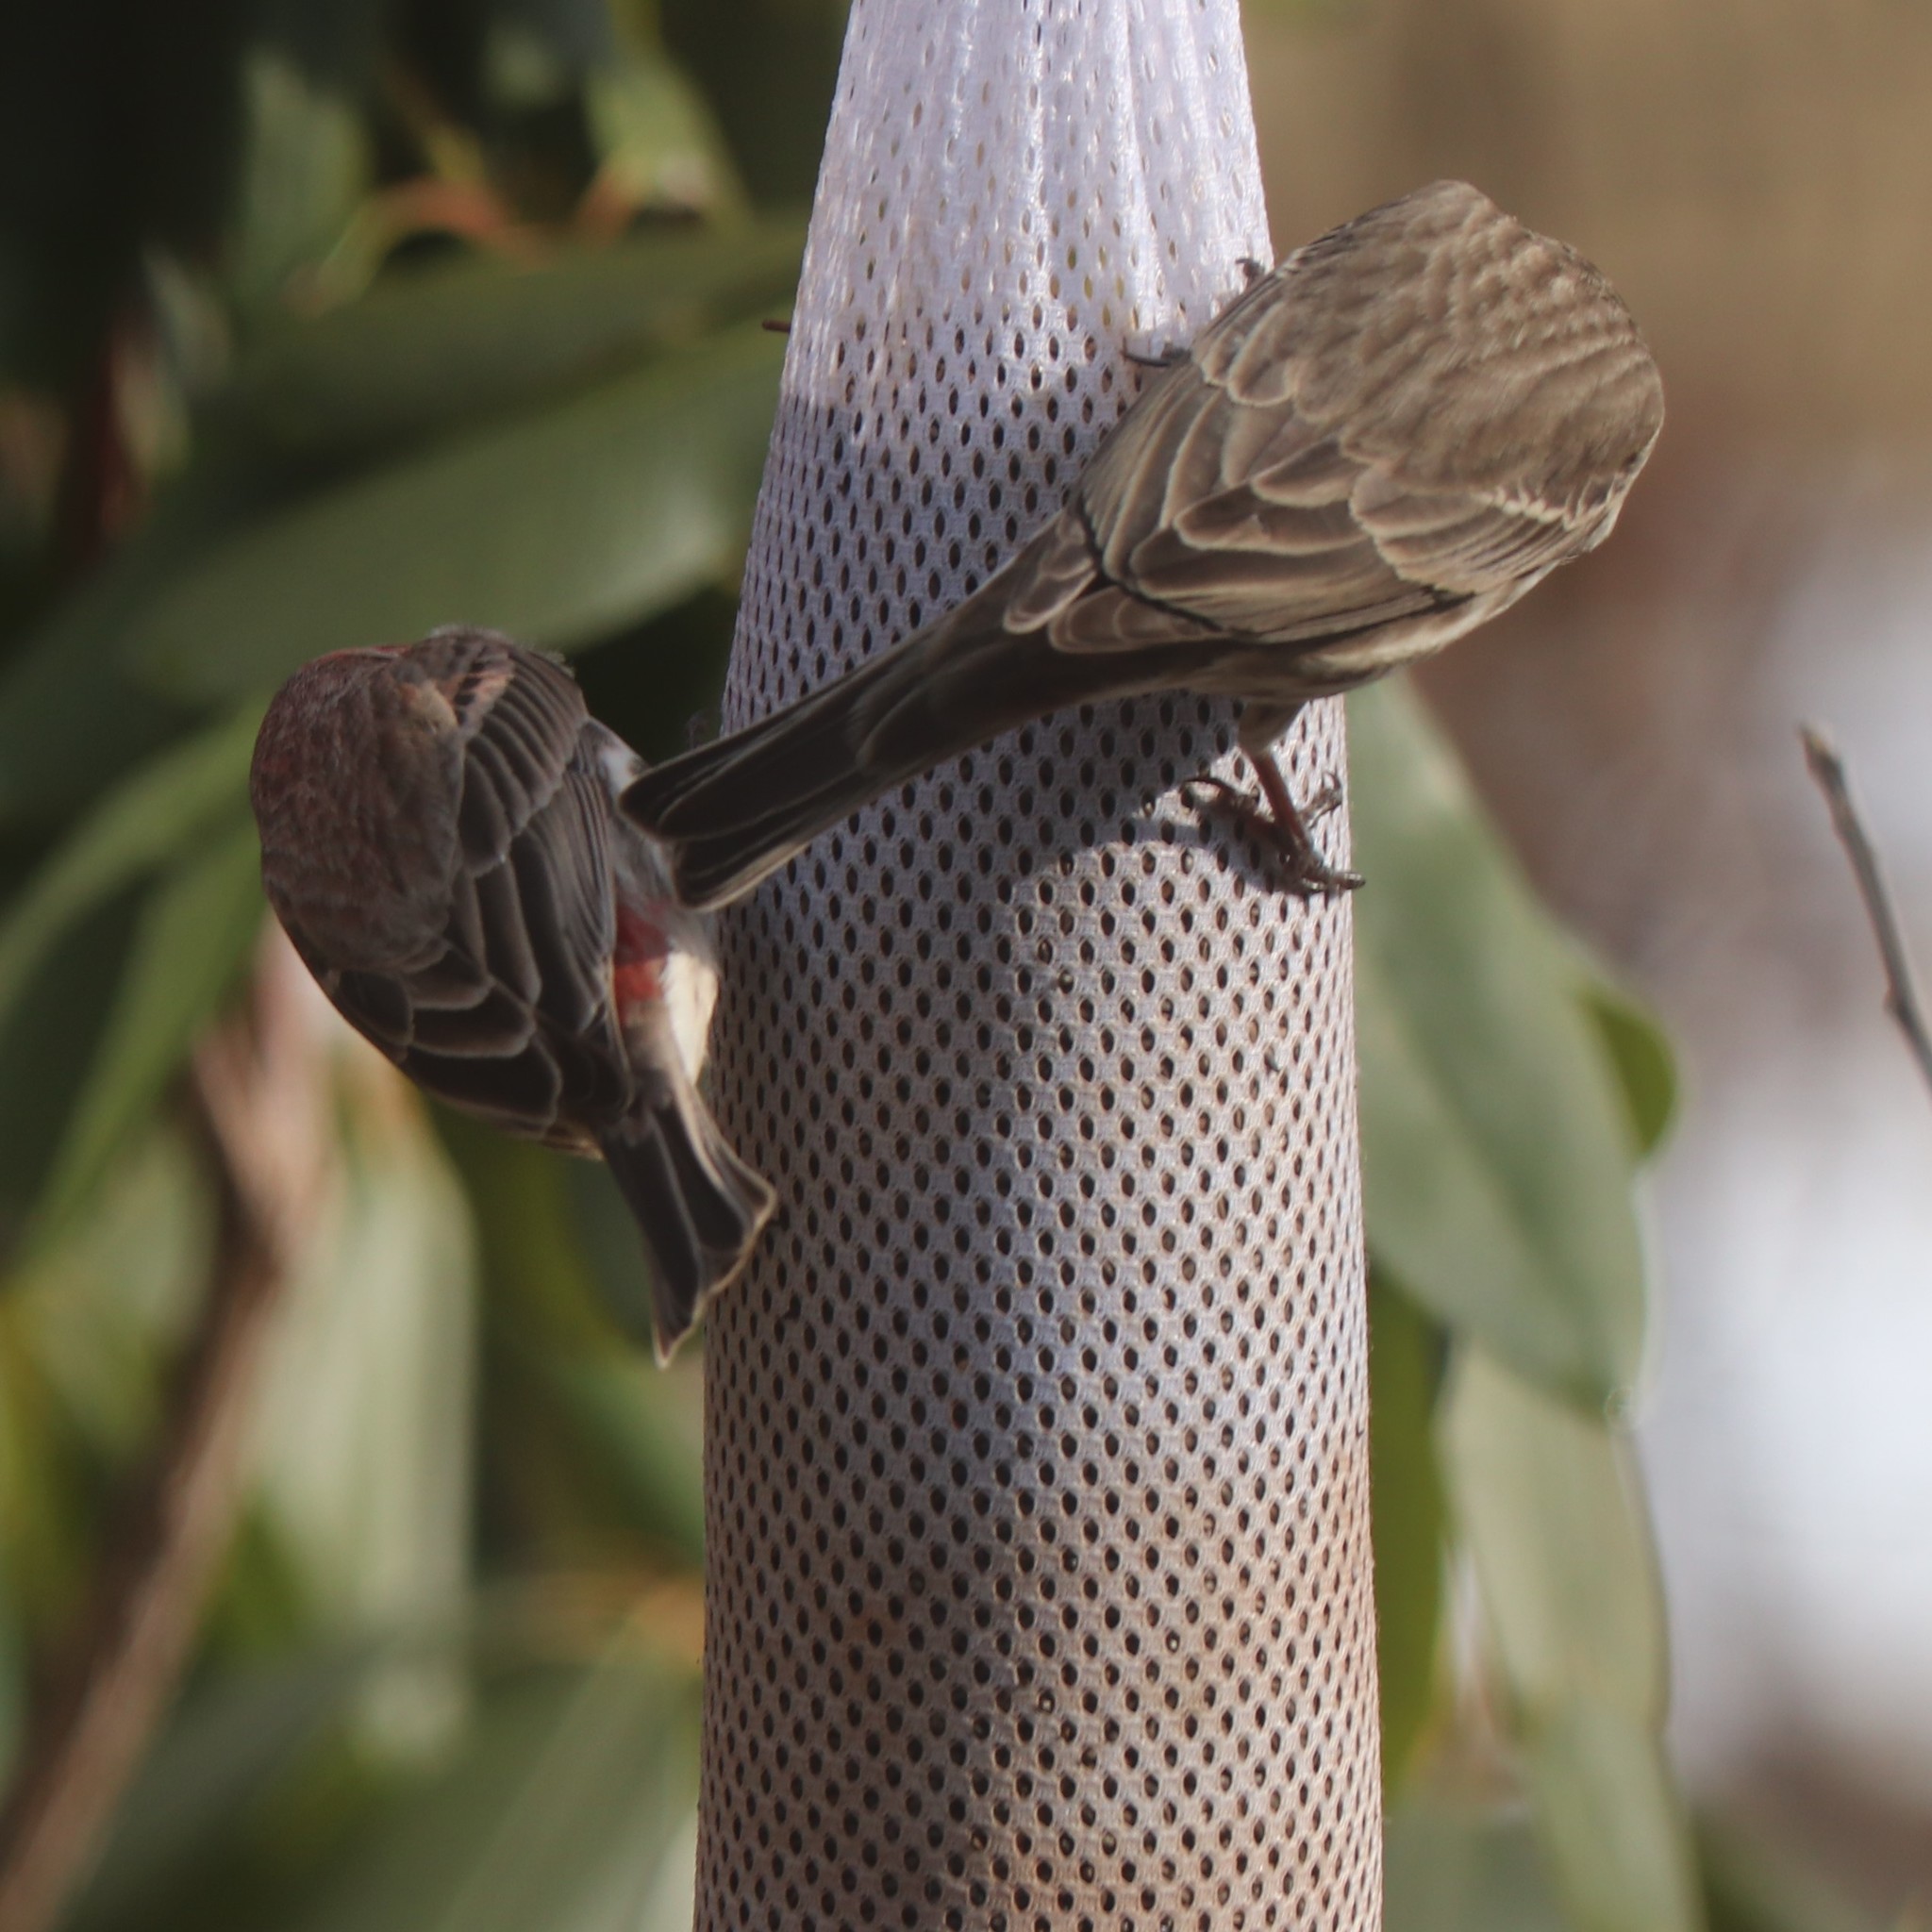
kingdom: Animalia
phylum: Chordata
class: Aves
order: Passeriformes
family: Fringillidae
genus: Haemorhous
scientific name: Haemorhous mexicanus
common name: House finch
